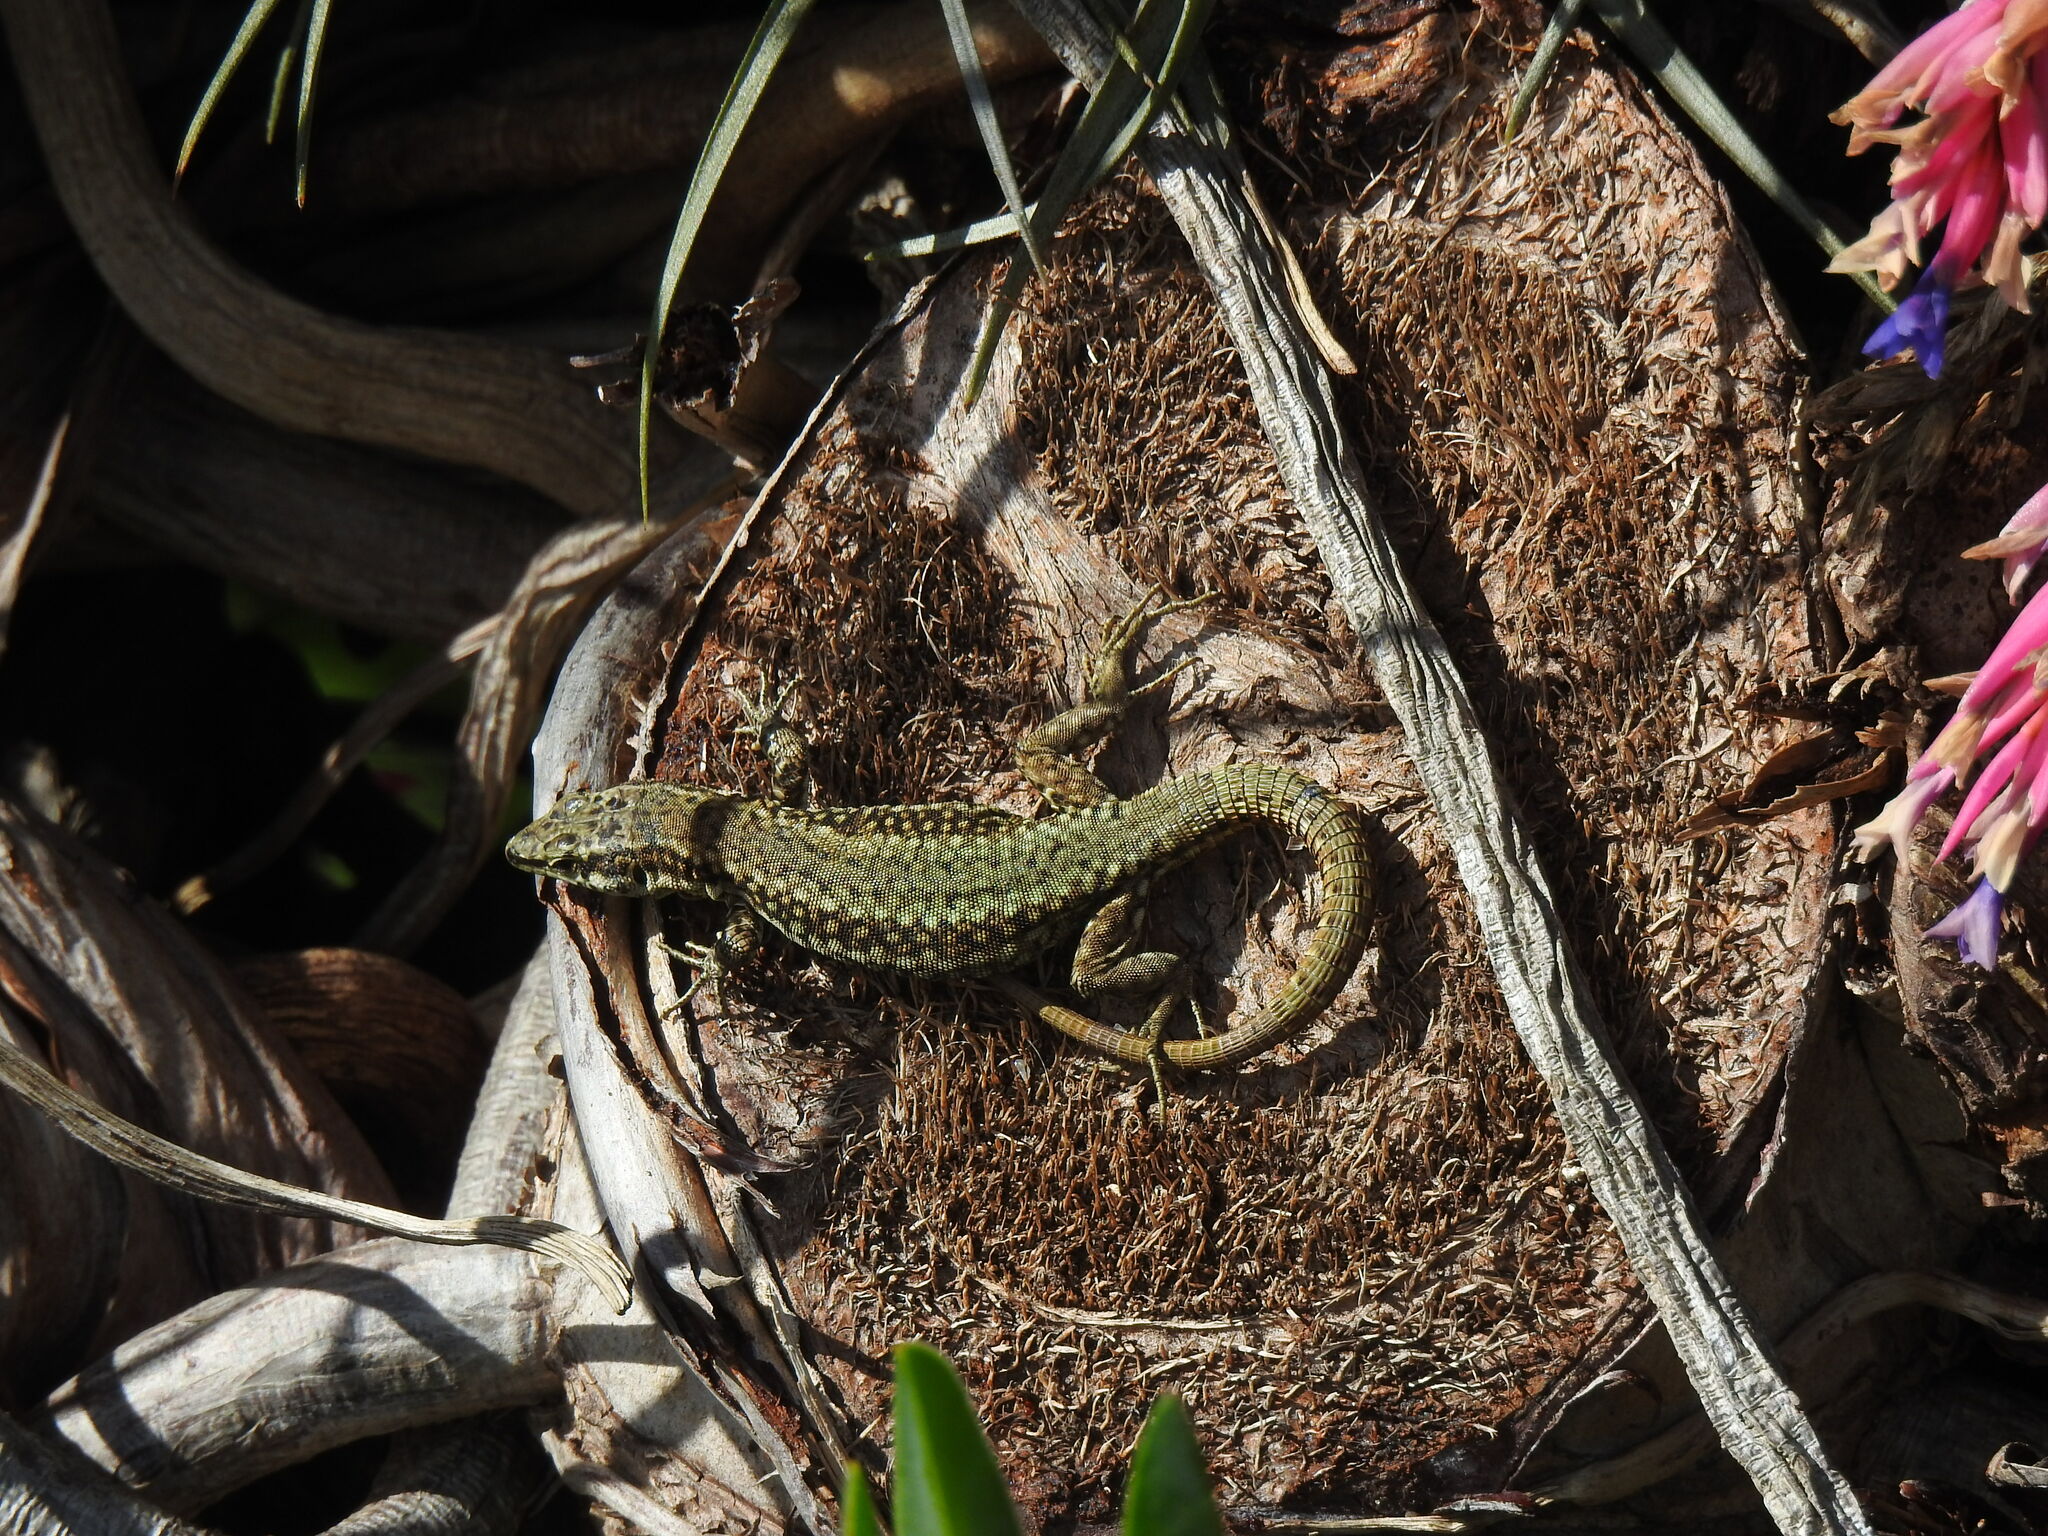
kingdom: Animalia
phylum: Chordata
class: Squamata
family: Lacertidae
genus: Podarcis
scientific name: Podarcis virescens
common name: Geniez’s wall lizard
